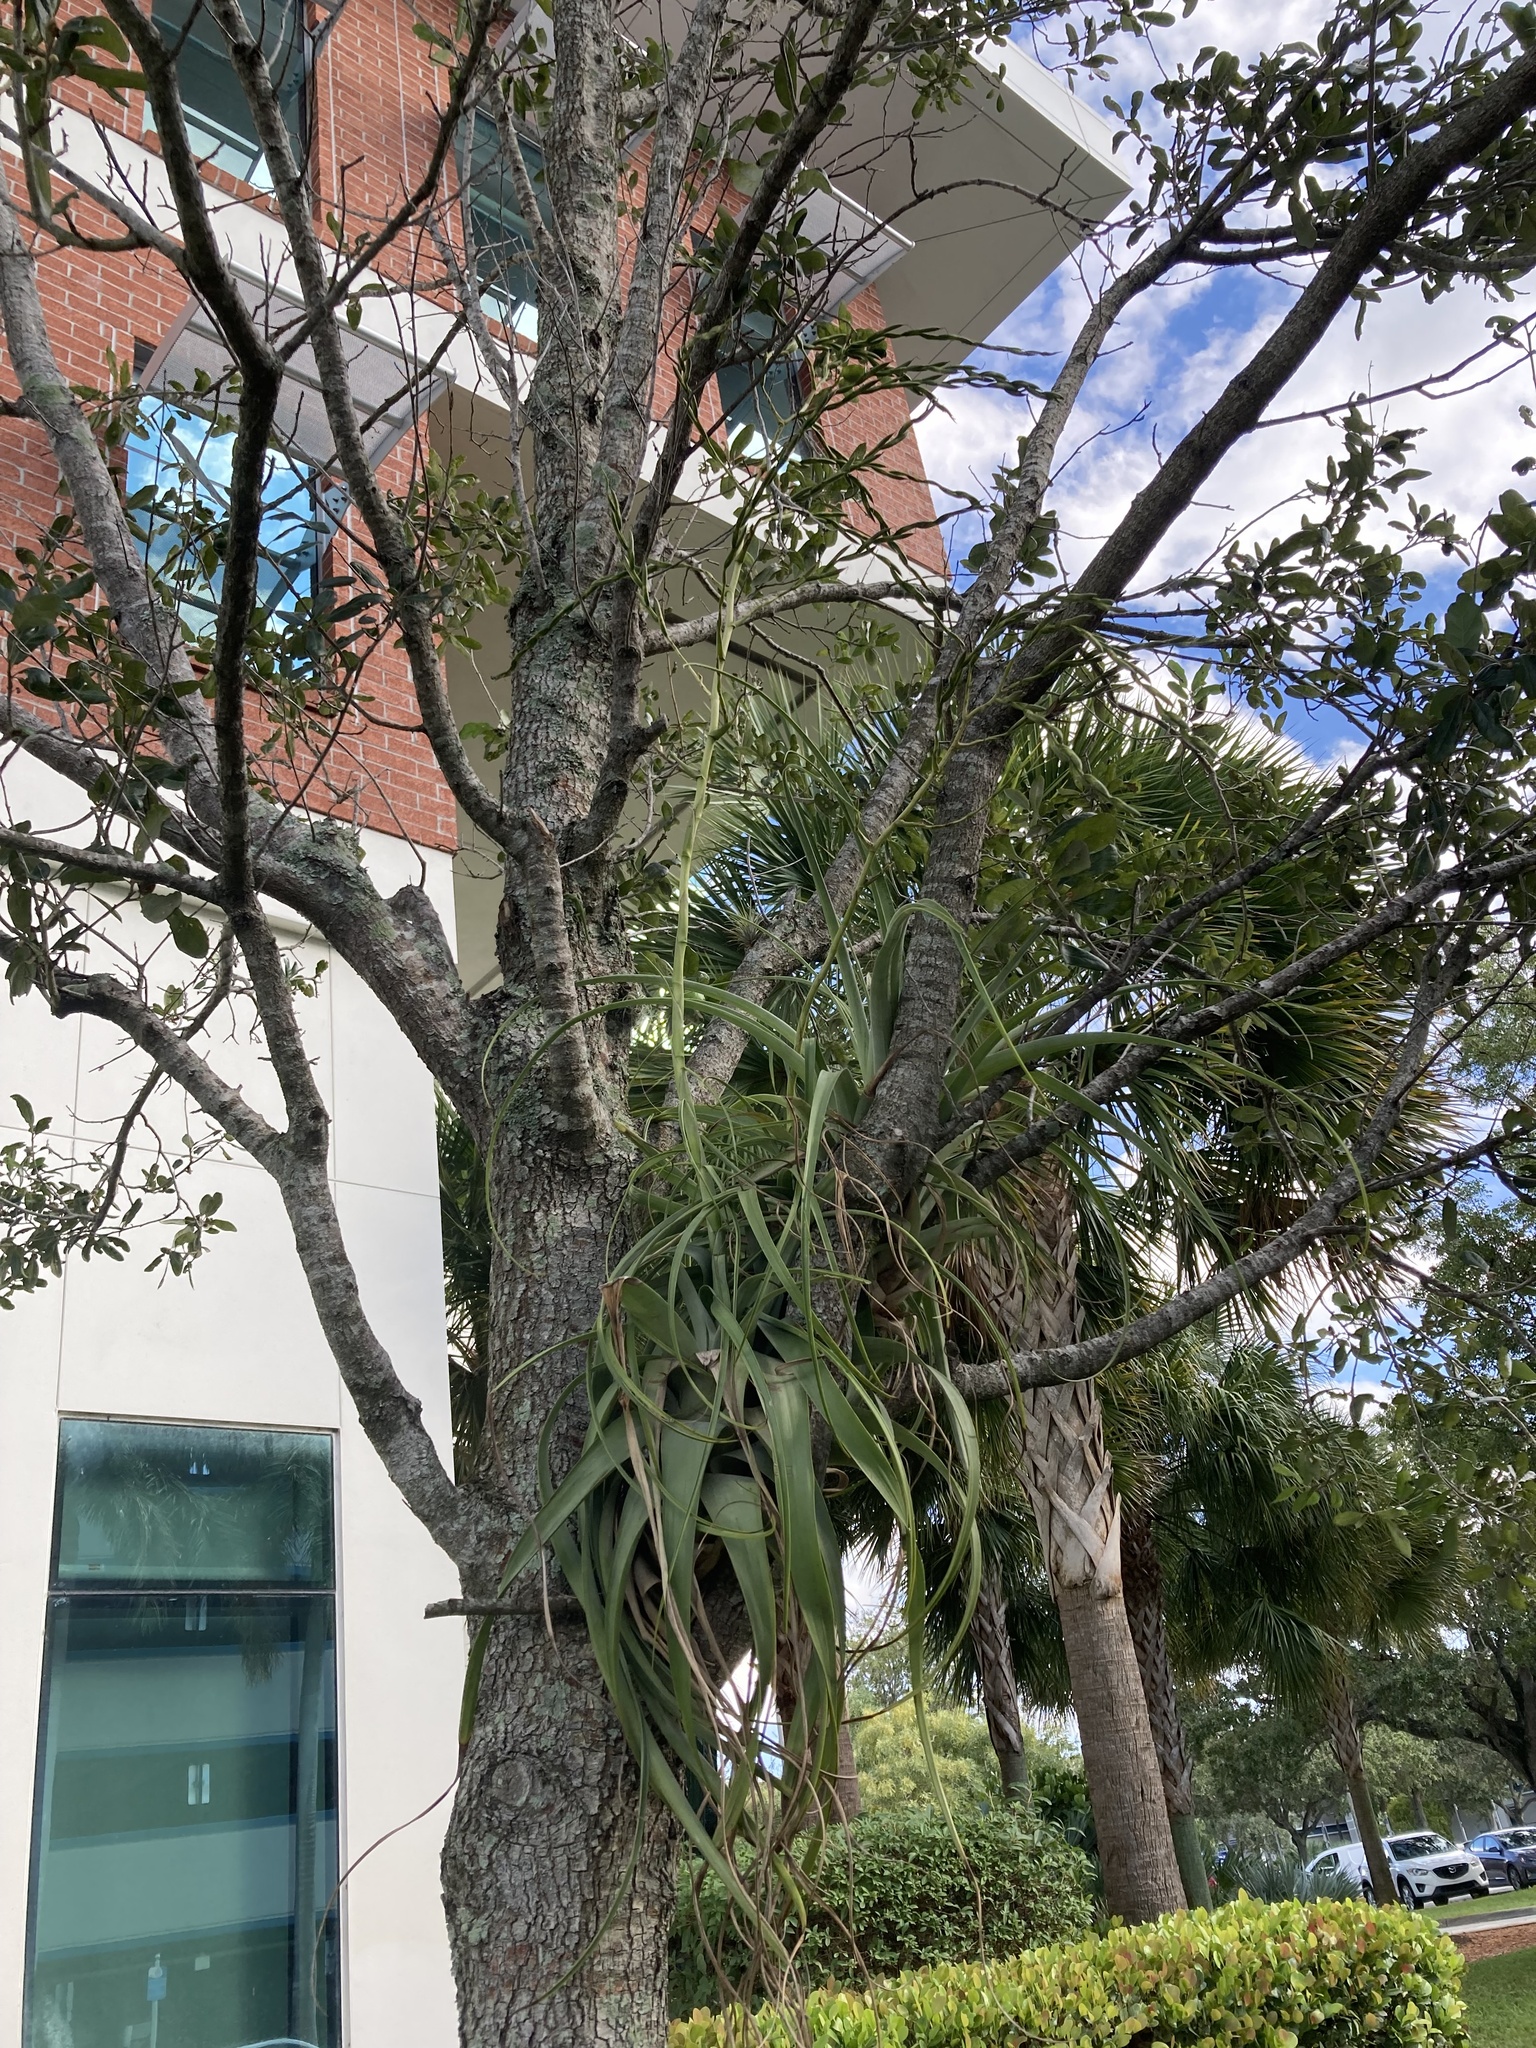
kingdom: Plantae
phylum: Tracheophyta
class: Liliopsida
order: Poales
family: Bromeliaceae
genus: Tillandsia
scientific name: Tillandsia utriculata
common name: Wild pine
